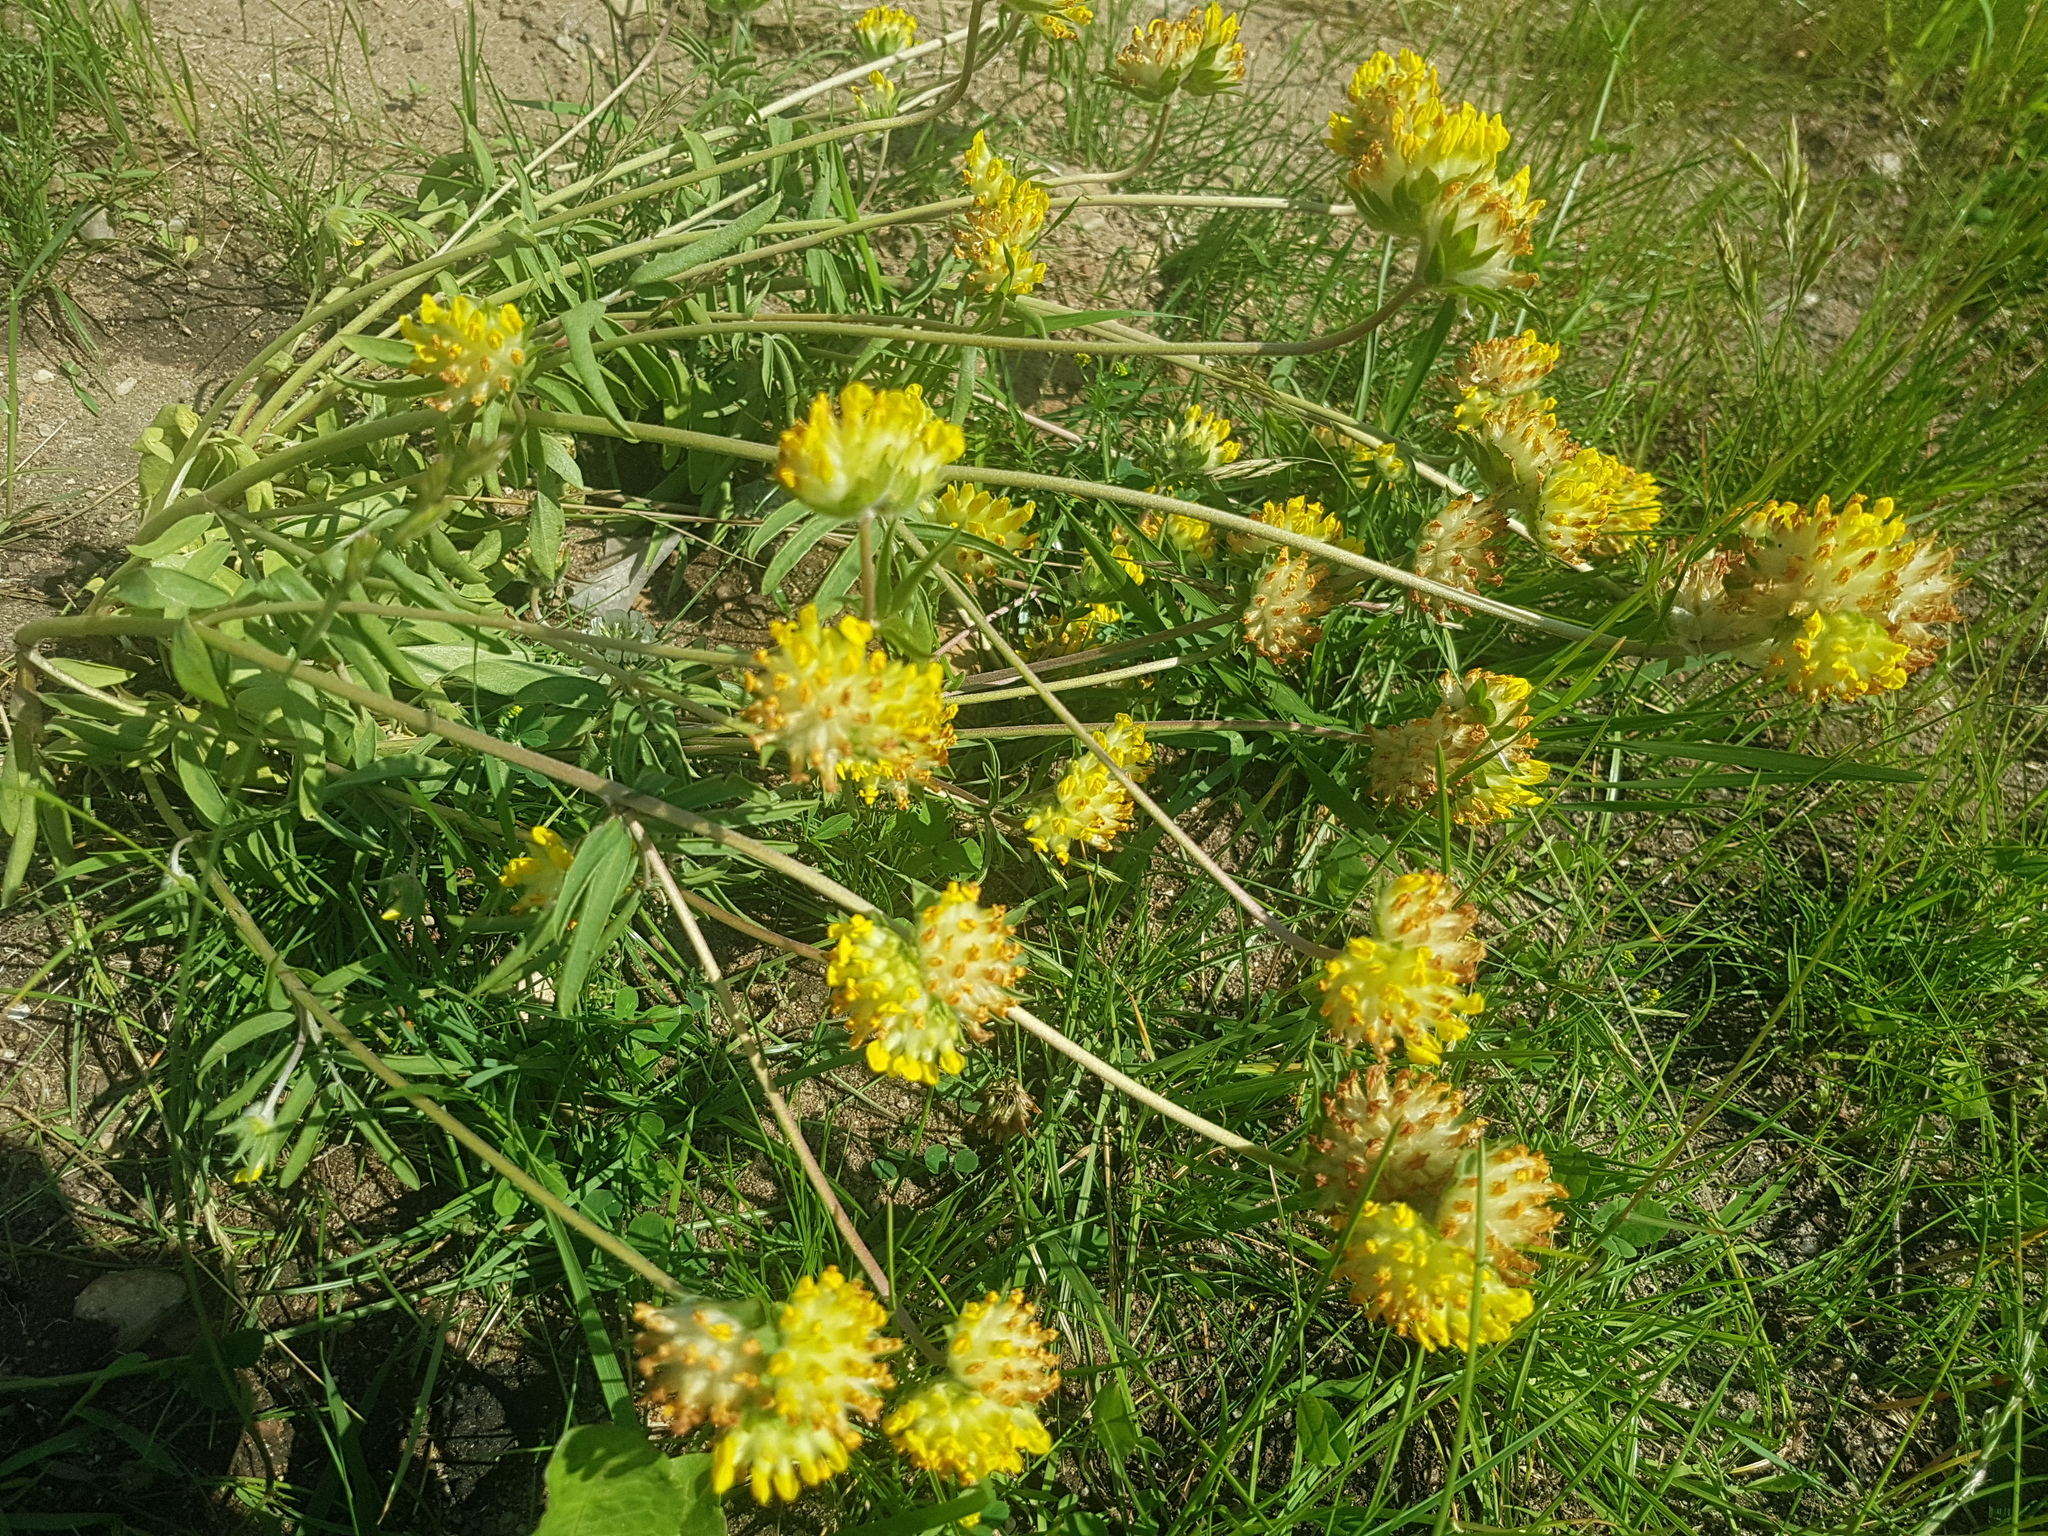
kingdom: Plantae
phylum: Tracheophyta
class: Magnoliopsida
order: Fabales
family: Fabaceae
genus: Anthyllis
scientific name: Anthyllis vulneraria
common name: Kidney vetch
